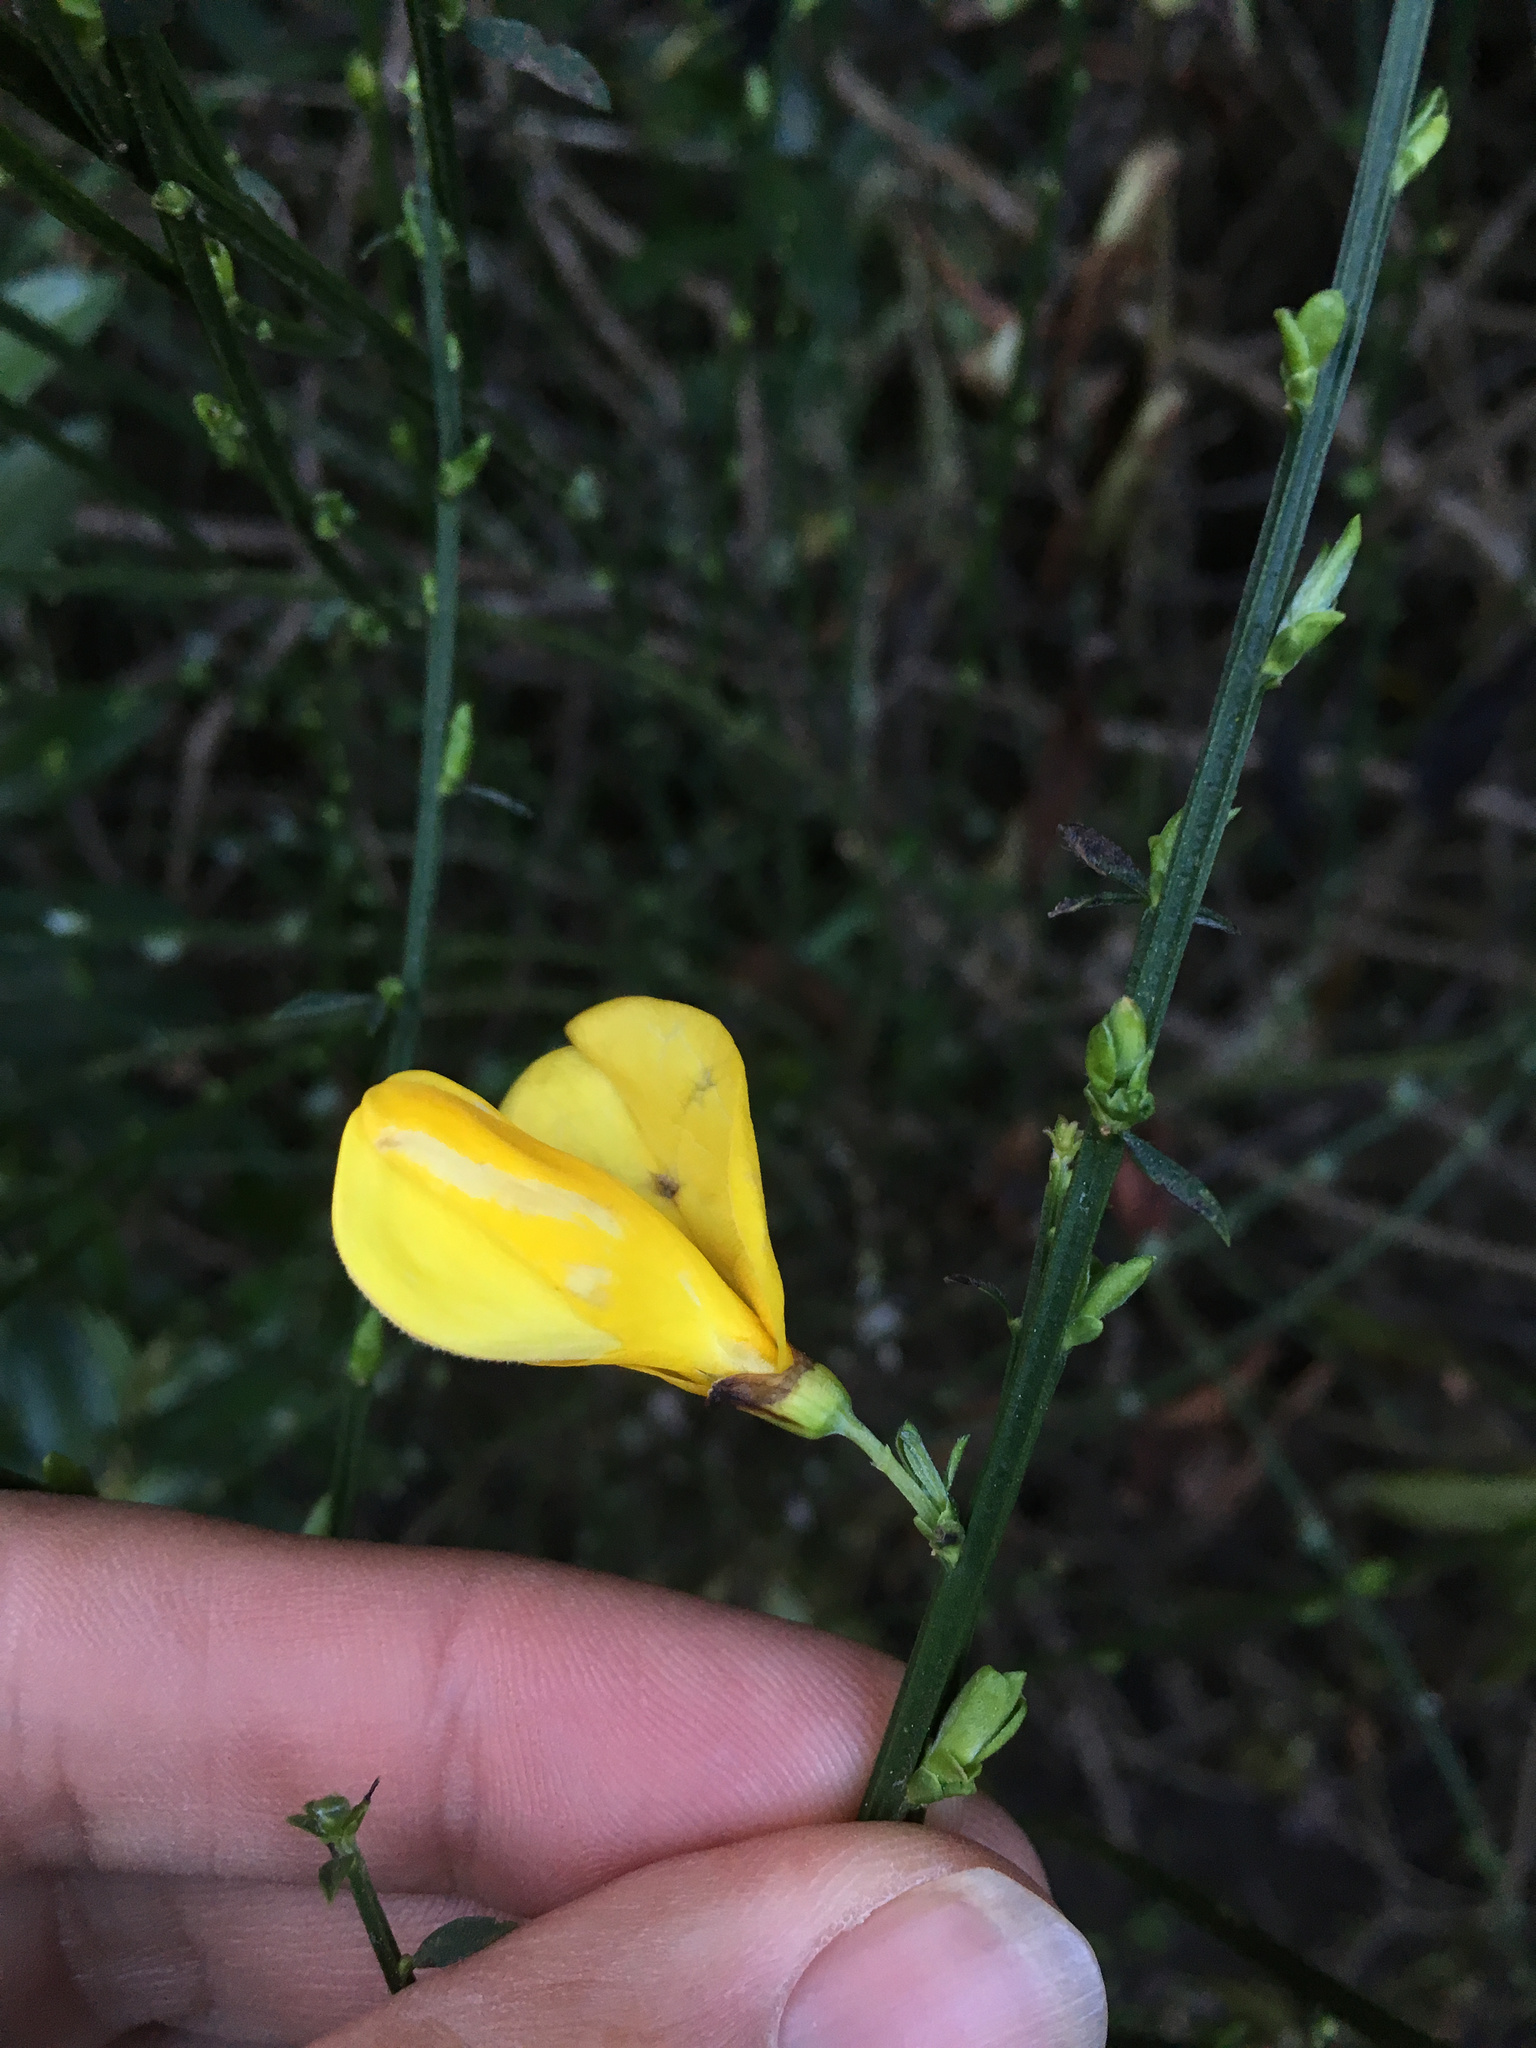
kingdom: Plantae
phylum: Tracheophyta
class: Magnoliopsida
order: Fabales
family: Fabaceae
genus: Cytisus
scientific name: Cytisus scoparius
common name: Scotch broom
